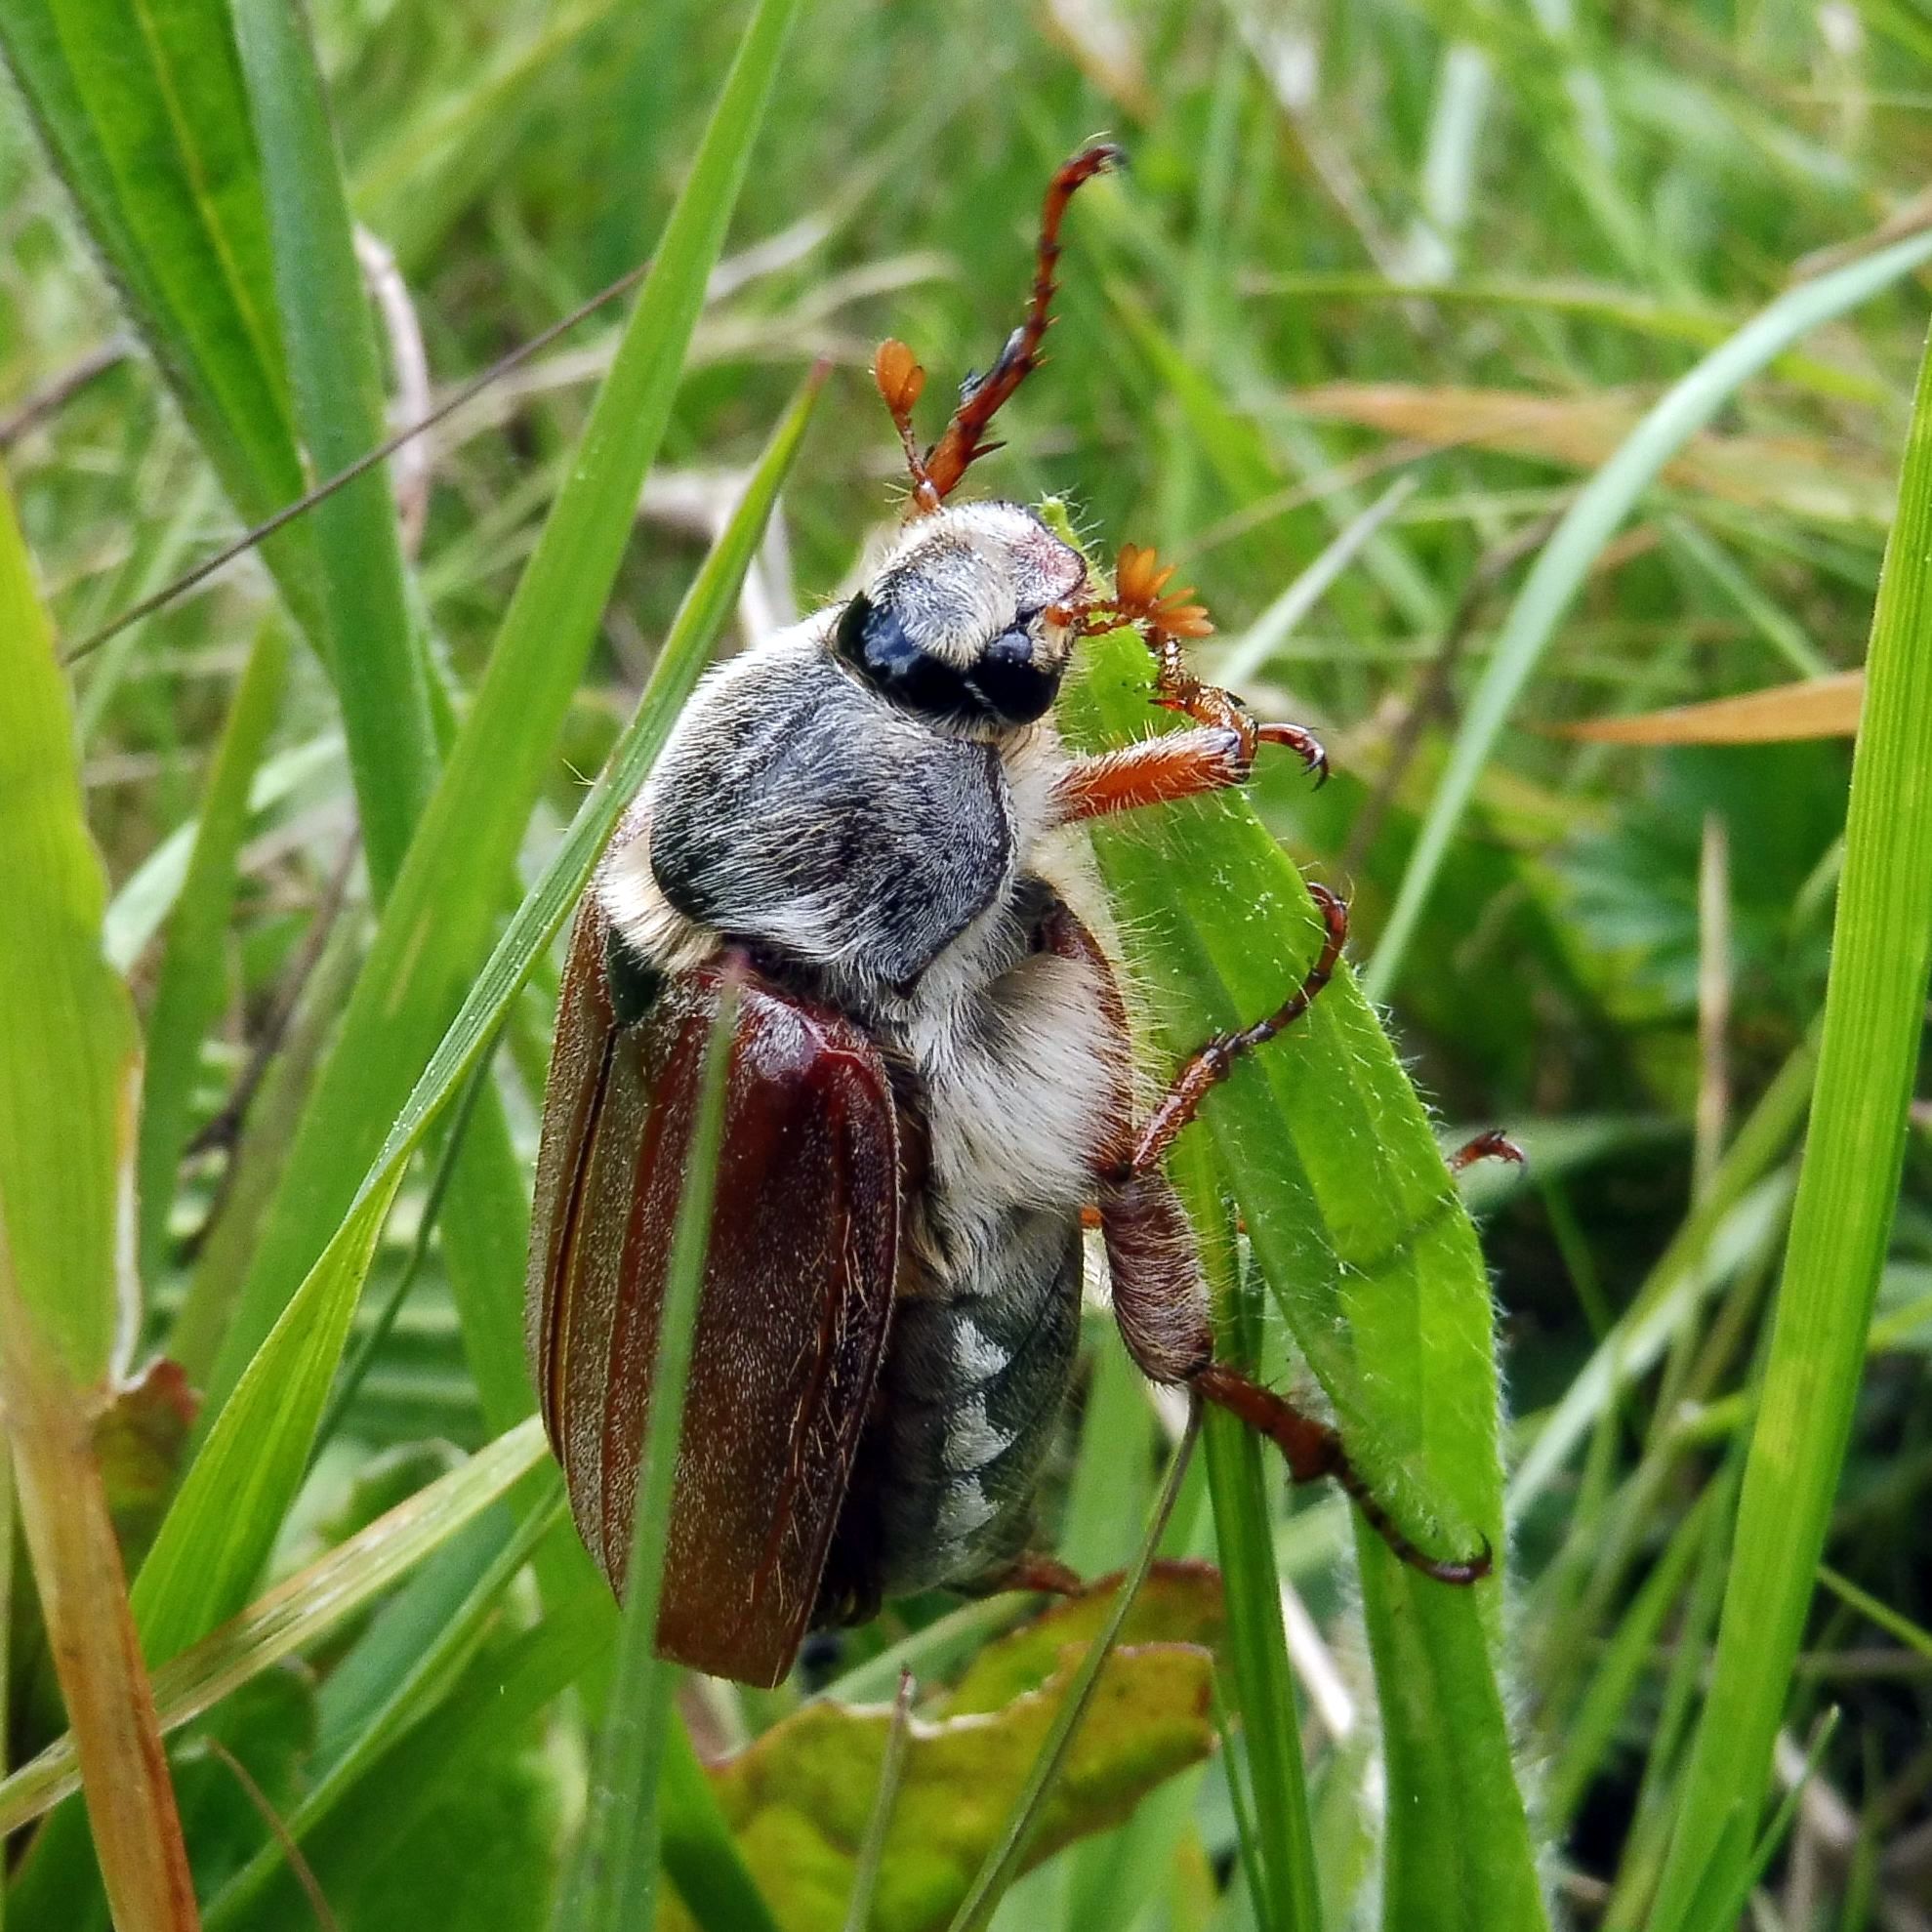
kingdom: Animalia
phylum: Arthropoda
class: Insecta
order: Coleoptera
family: Scarabaeidae
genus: Melolontha
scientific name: Melolontha melolontha
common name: Cockchafer maybeetle
